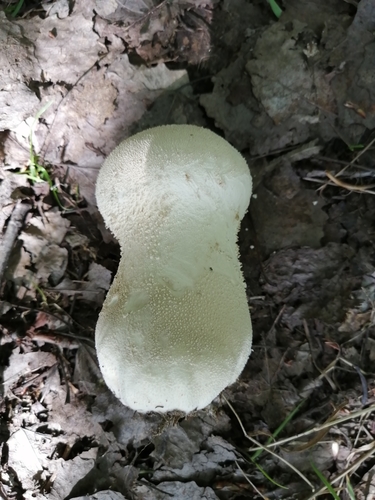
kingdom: Fungi
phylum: Basidiomycota
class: Agaricomycetes
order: Agaricales
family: Lycoperdaceae
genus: Lycoperdon
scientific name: Lycoperdon excipuliforme
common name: Pestle puffball
